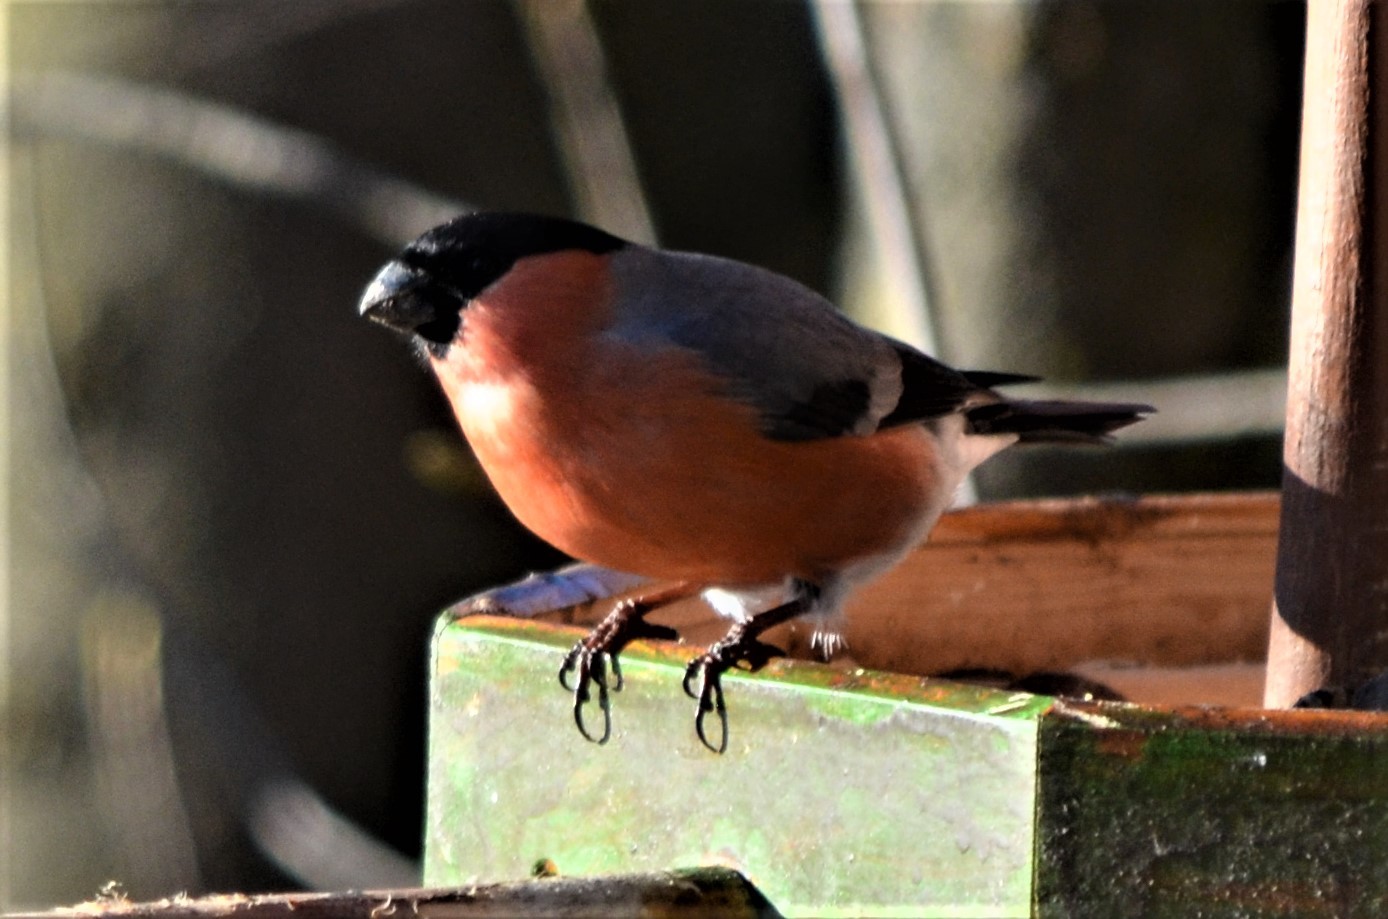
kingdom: Animalia
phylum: Chordata
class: Aves
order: Passeriformes
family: Fringillidae
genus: Pyrrhula
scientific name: Pyrrhula pyrrhula
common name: Eurasian bullfinch
